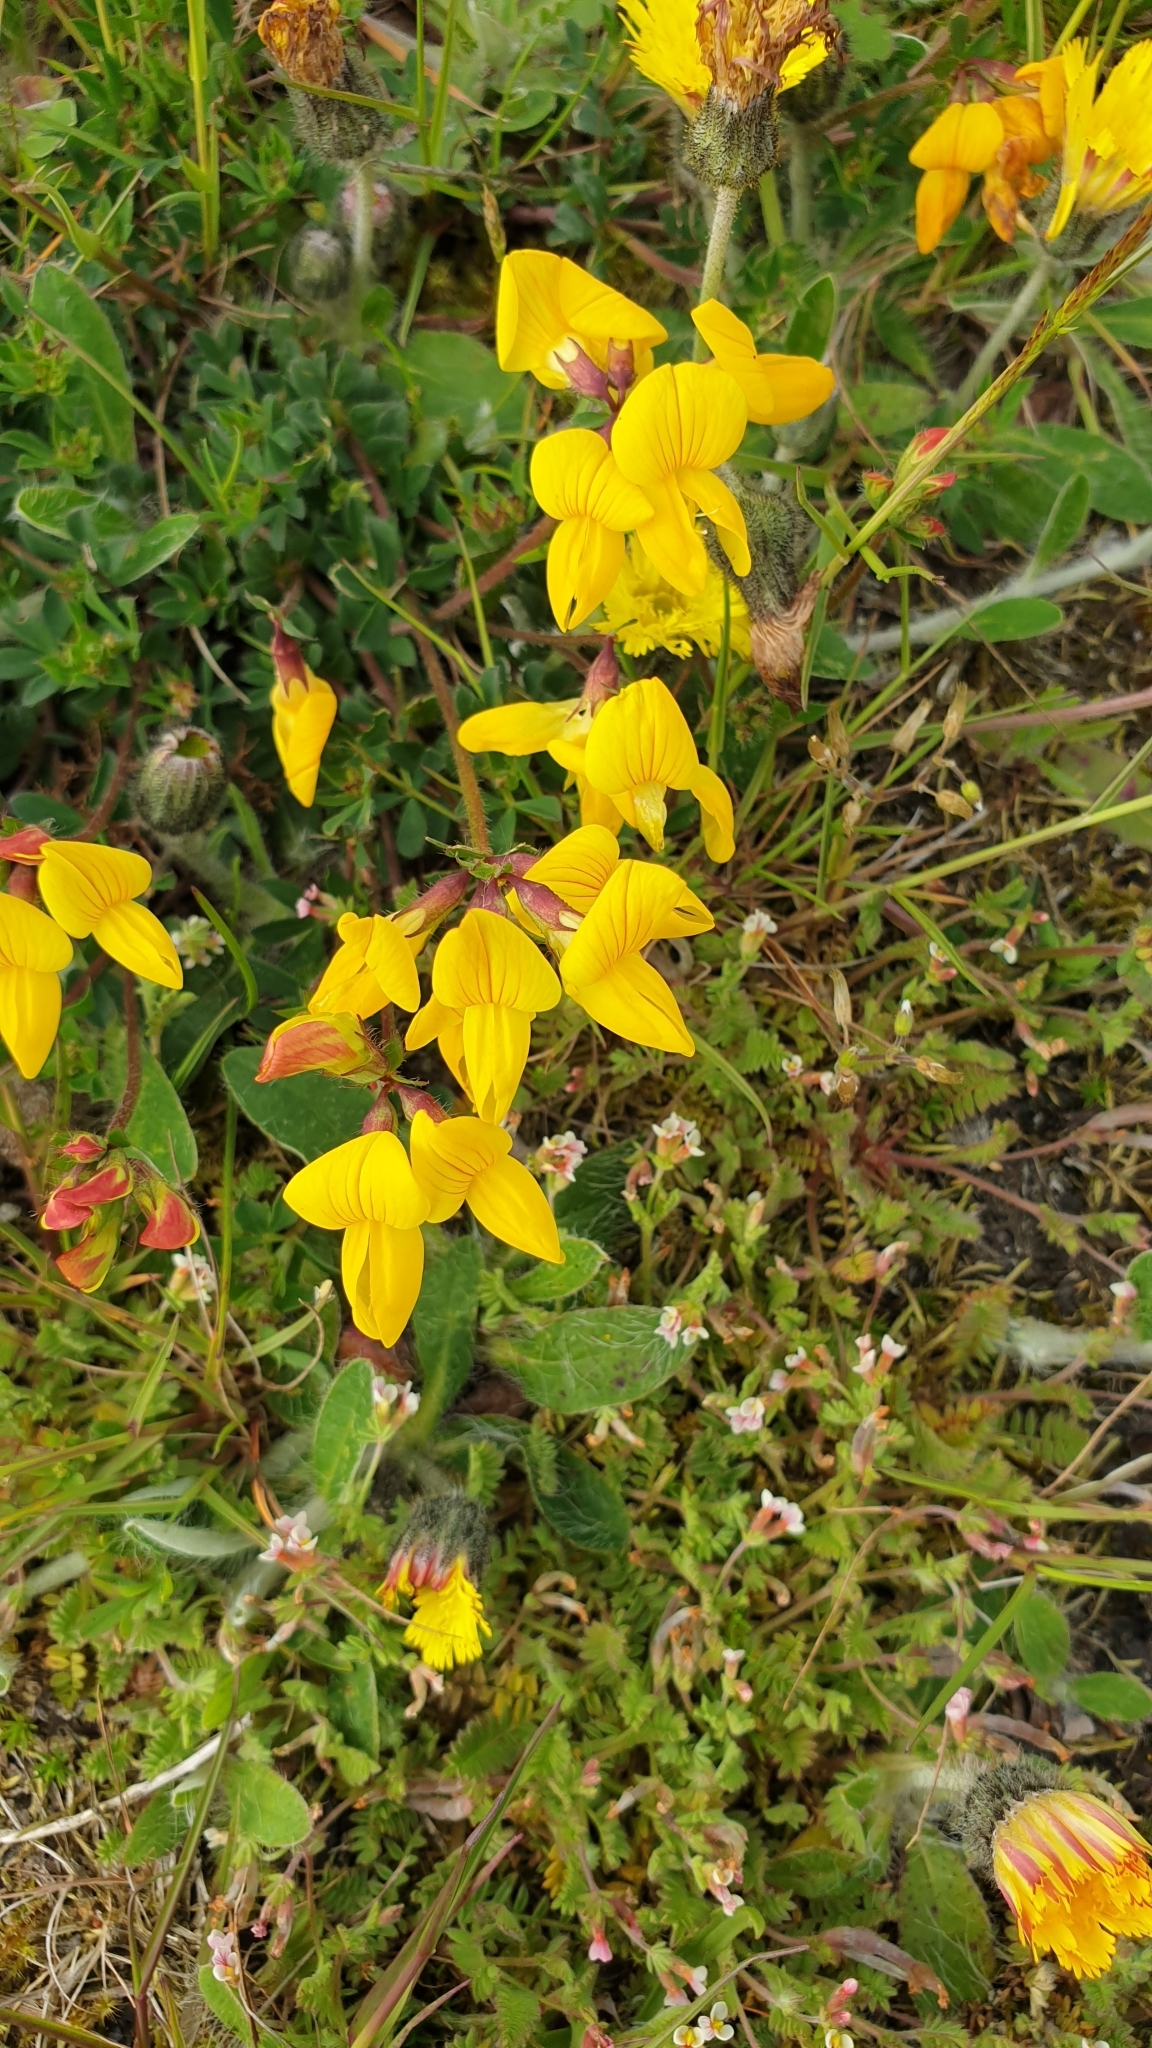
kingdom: Plantae
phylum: Tracheophyta
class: Magnoliopsida
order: Fabales
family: Fabaceae
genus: Lotus
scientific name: Lotus corniculatus
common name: Common bird's-foot-trefoil
